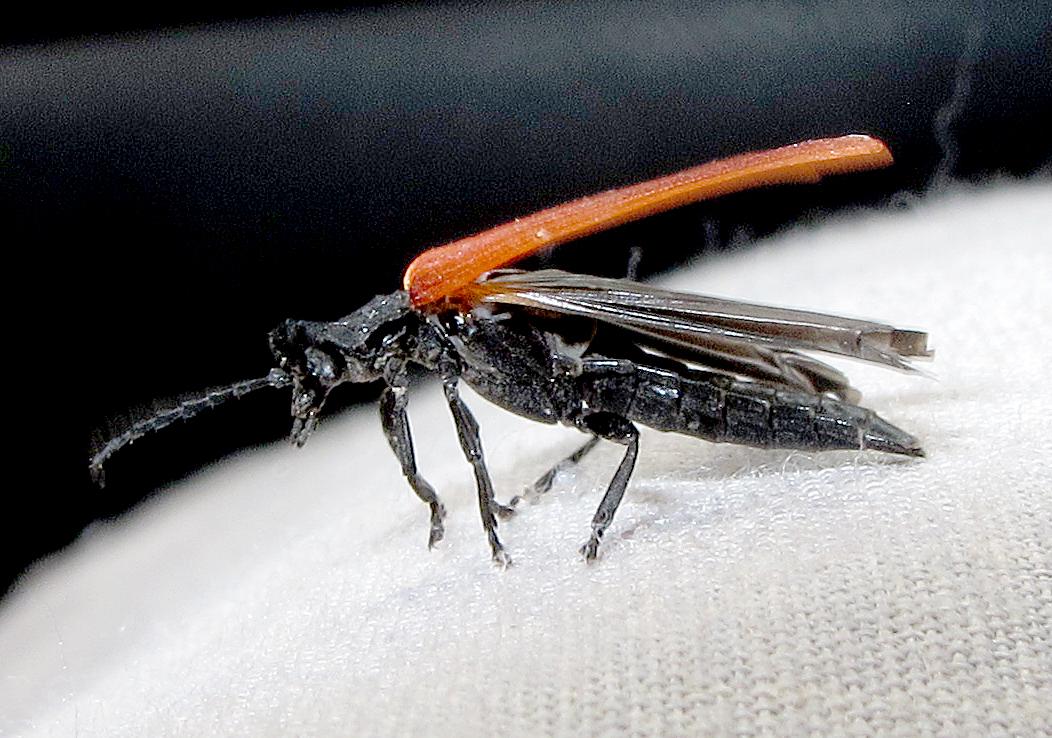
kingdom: Animalia
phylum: Arthropoda
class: Insecta
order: Coleoptera
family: Lycidae
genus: Porrostoma
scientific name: Porrostoma rufipenne
